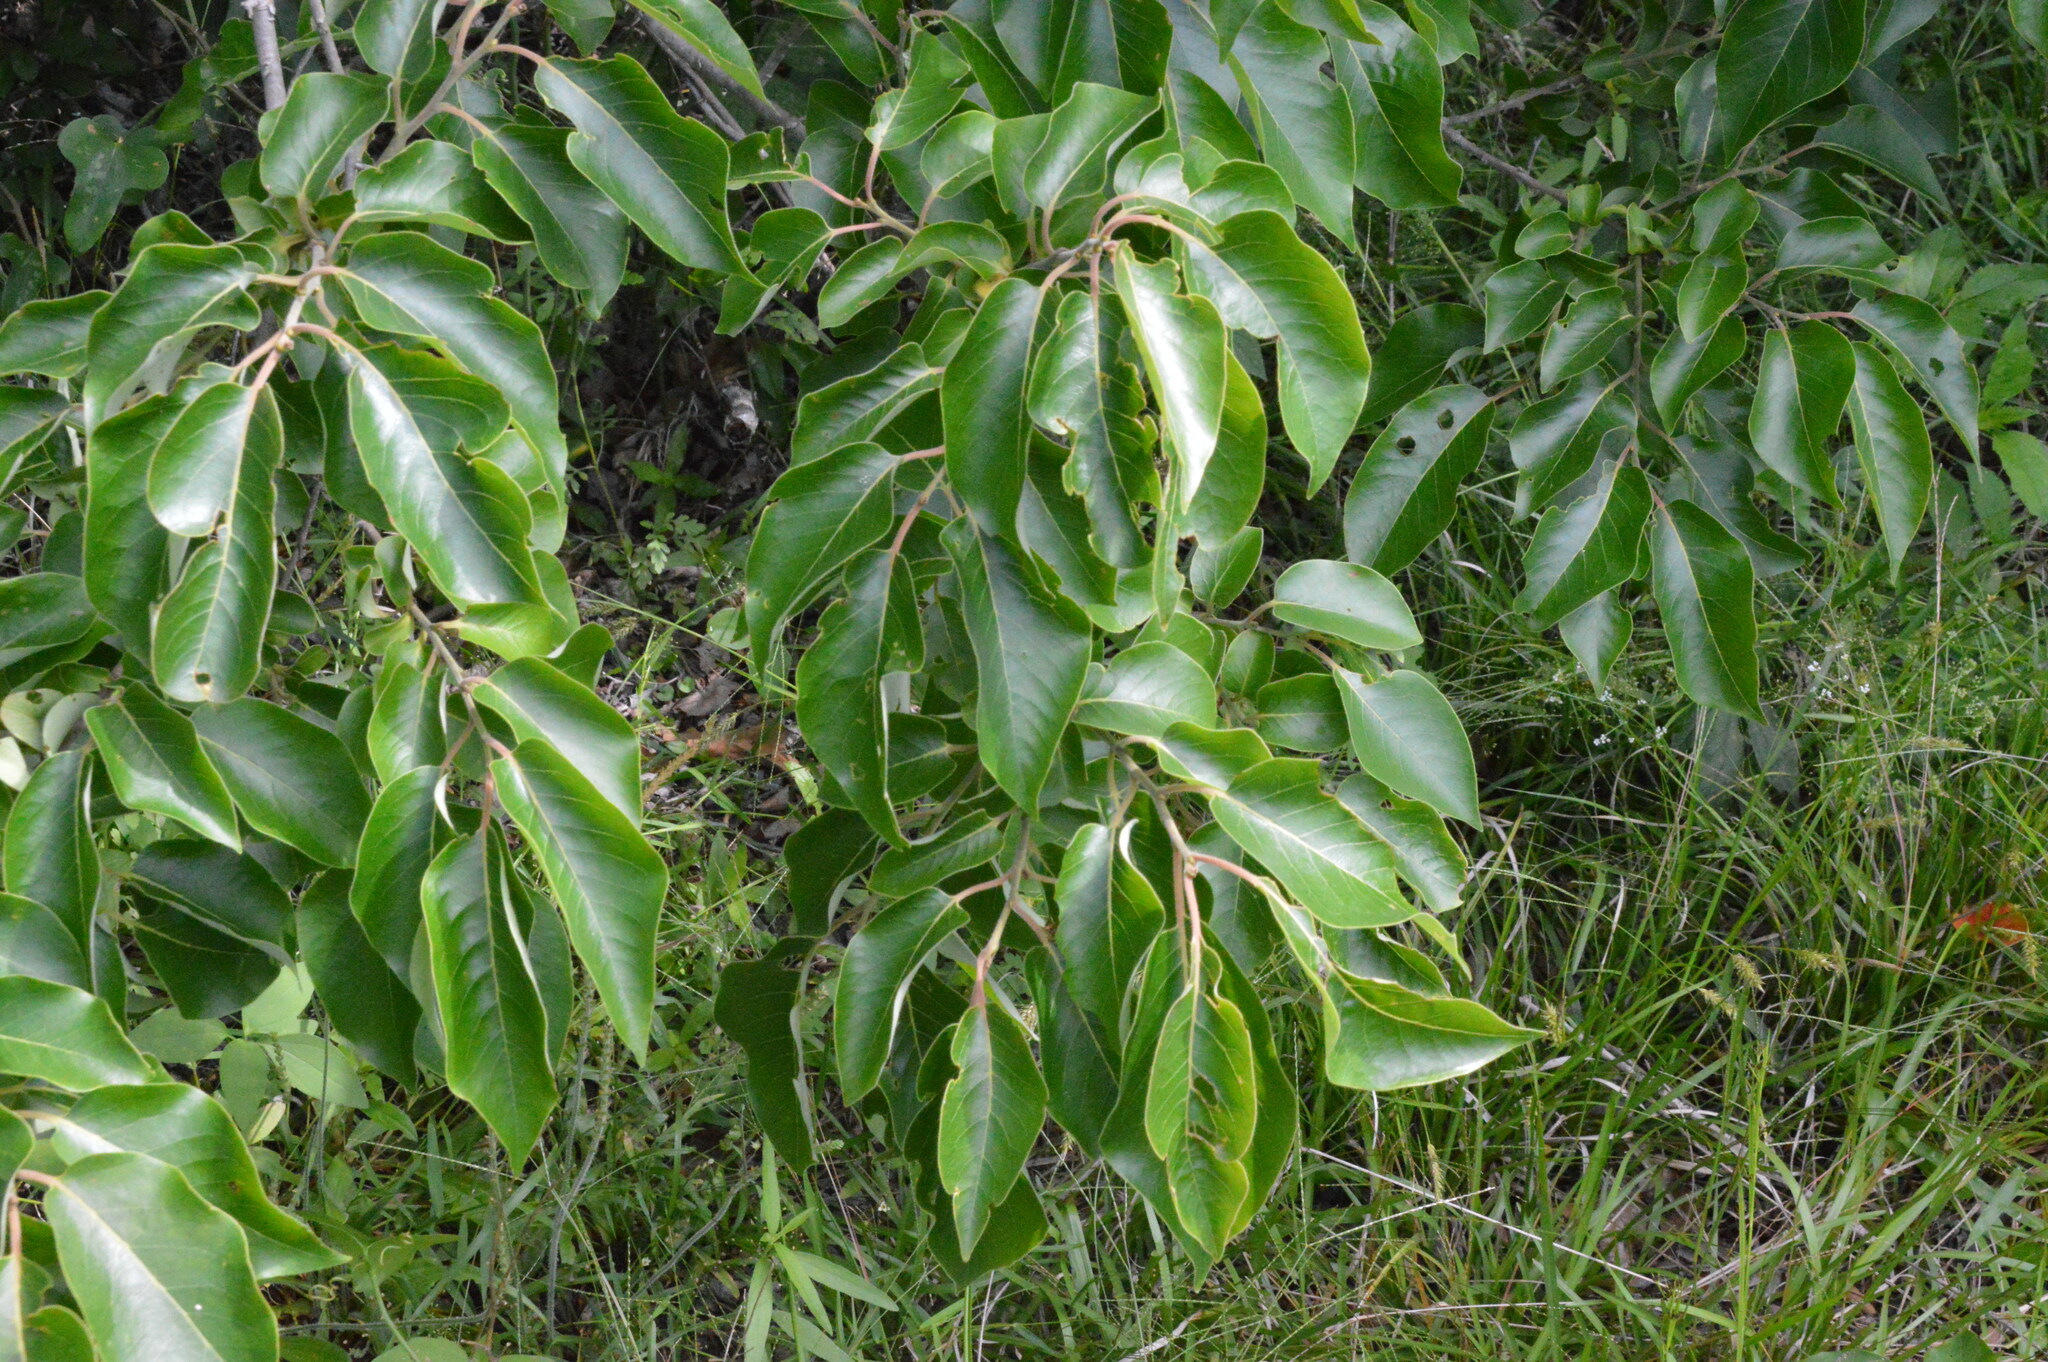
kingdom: Plantae
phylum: Tracheophyta
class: Magnoliopsida
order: Ericales
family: Ebenaceae
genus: Diospyros
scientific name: Diospyros virginiana
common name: Persimmon
